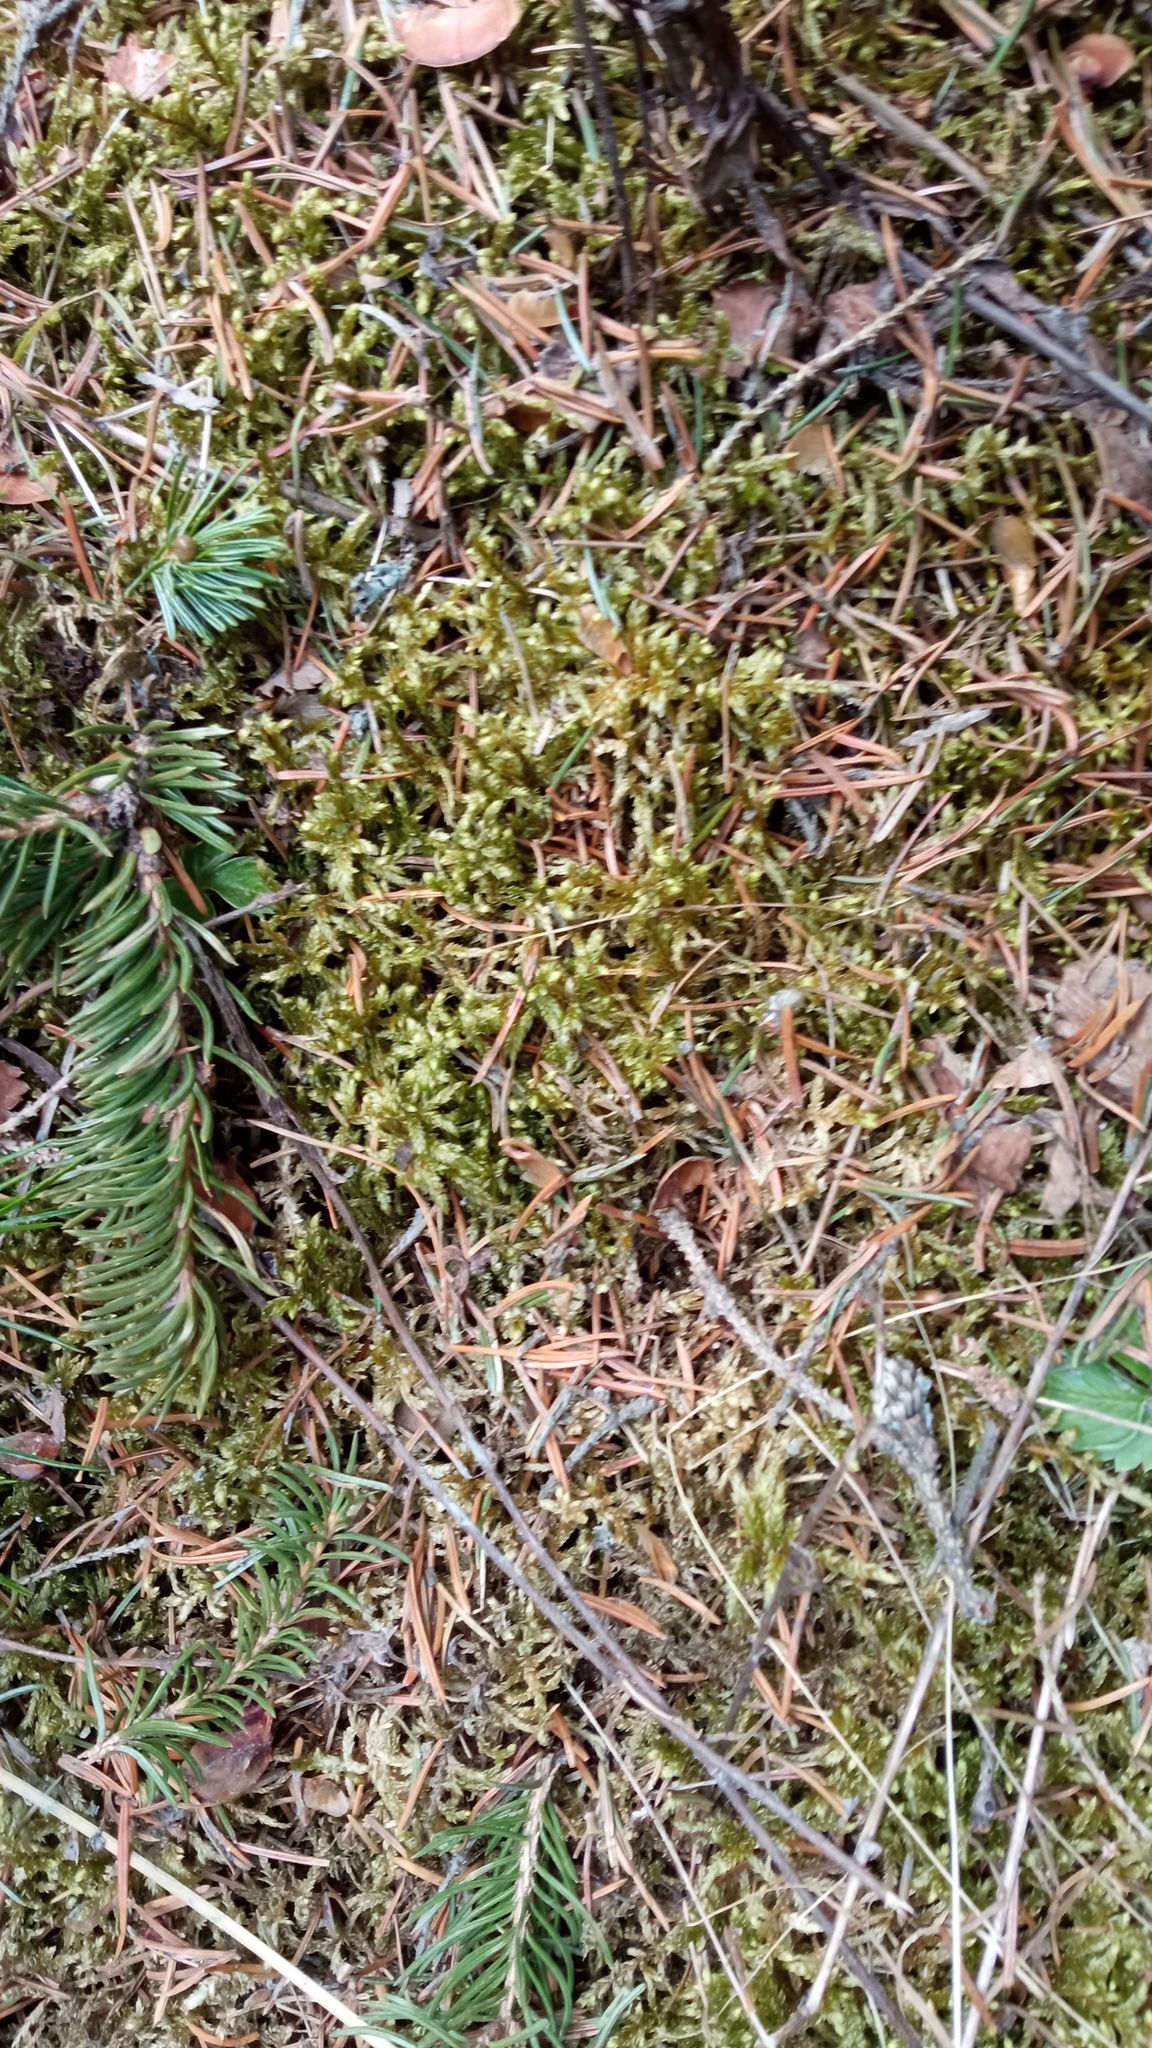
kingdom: Plantae
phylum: Bryophyta
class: Bryopsida
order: Hypnales
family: Hylocomiaceae
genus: Pleurozium
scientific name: Pleurozium schreberi
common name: Red-stemmed feather moss
